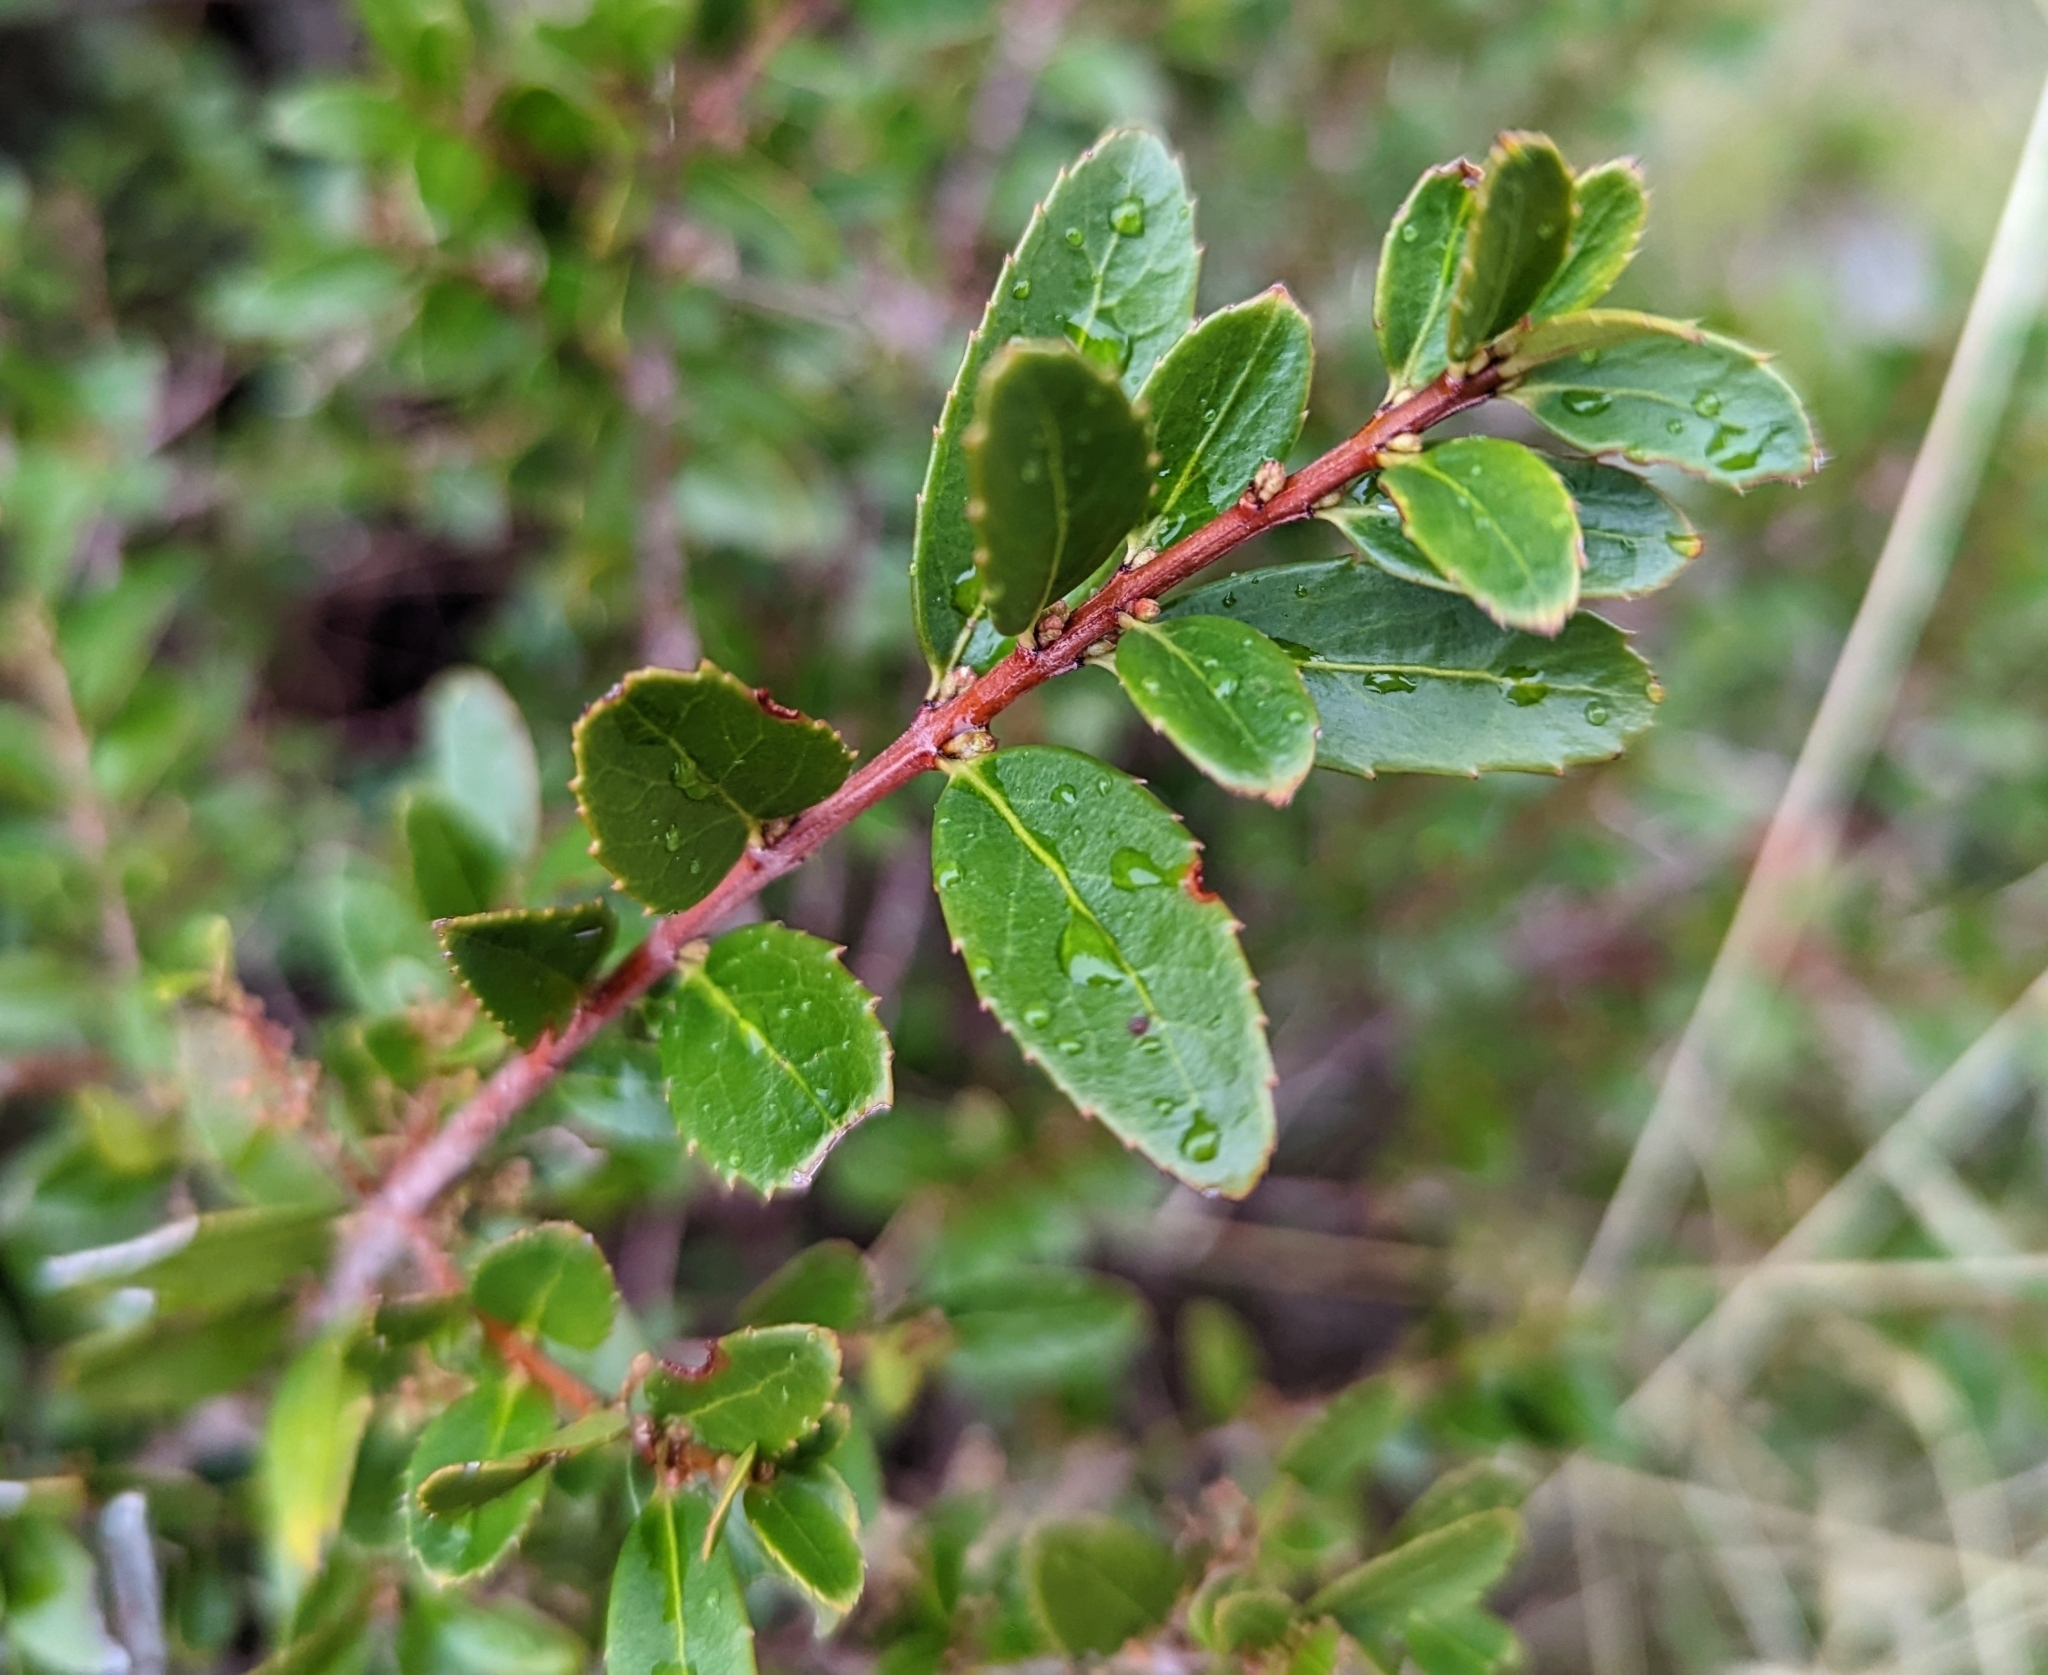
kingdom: Plantae
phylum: Tracheophyta
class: Magnoliopsida
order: Celastrales
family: Celastraceae
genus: Paxistima
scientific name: Paxistima myrsinites
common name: Mountain-lover
